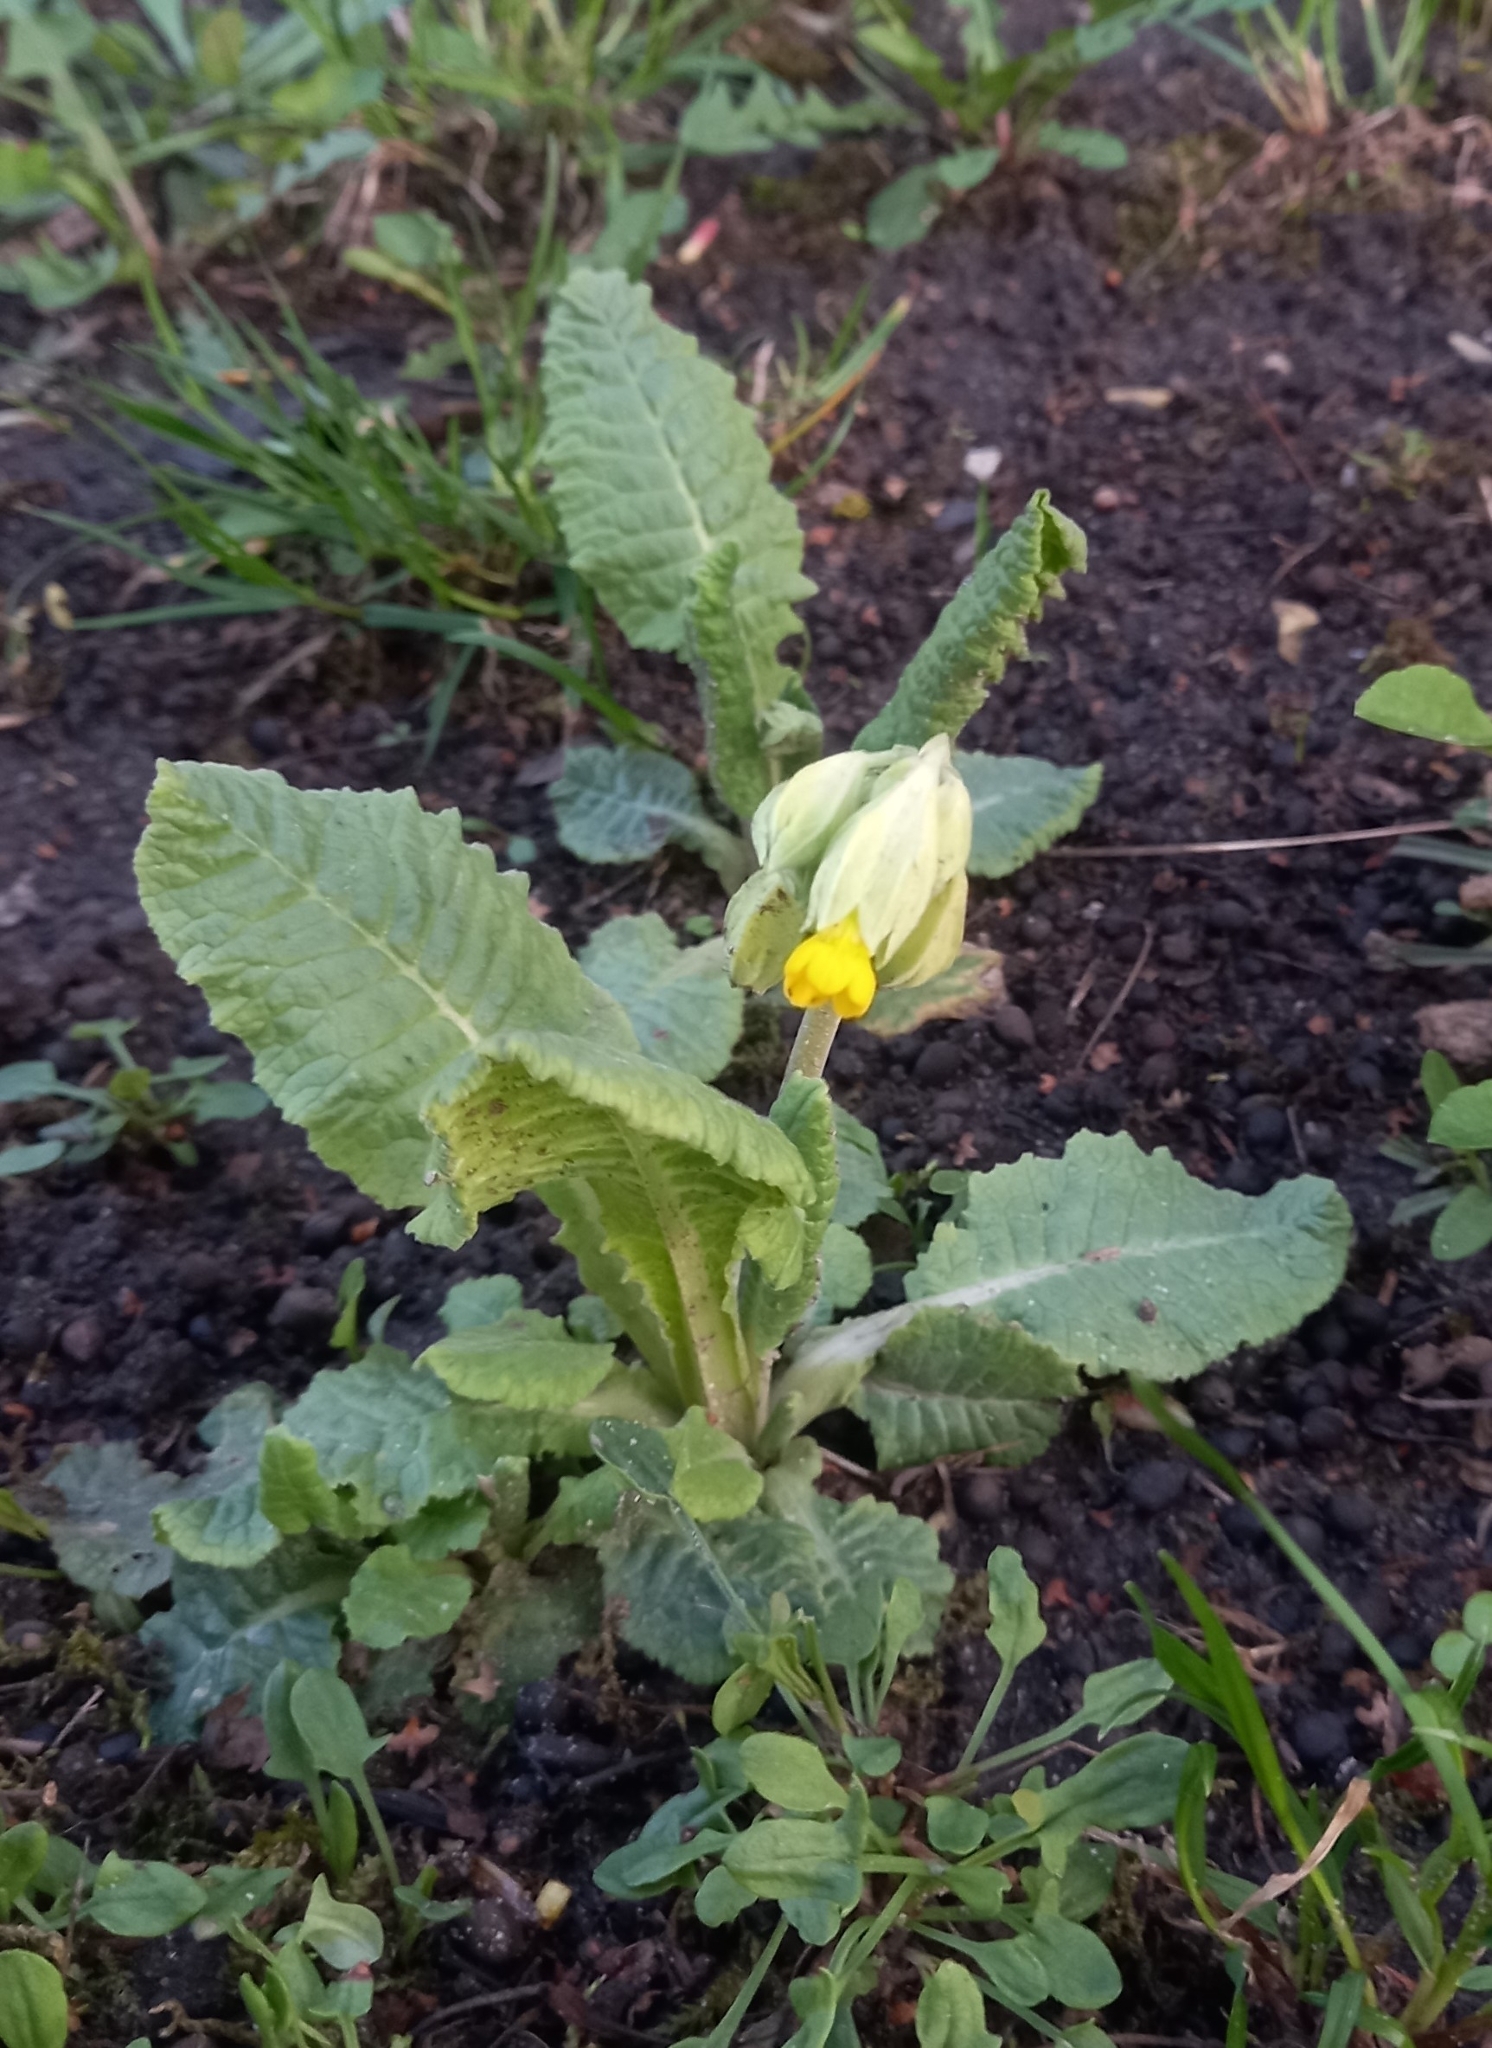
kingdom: Plantae
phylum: Tracheophyta
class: Magnoliopsida
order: Ericales
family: Primulaceae
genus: Primula
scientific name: Primula veris
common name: Cowslip
